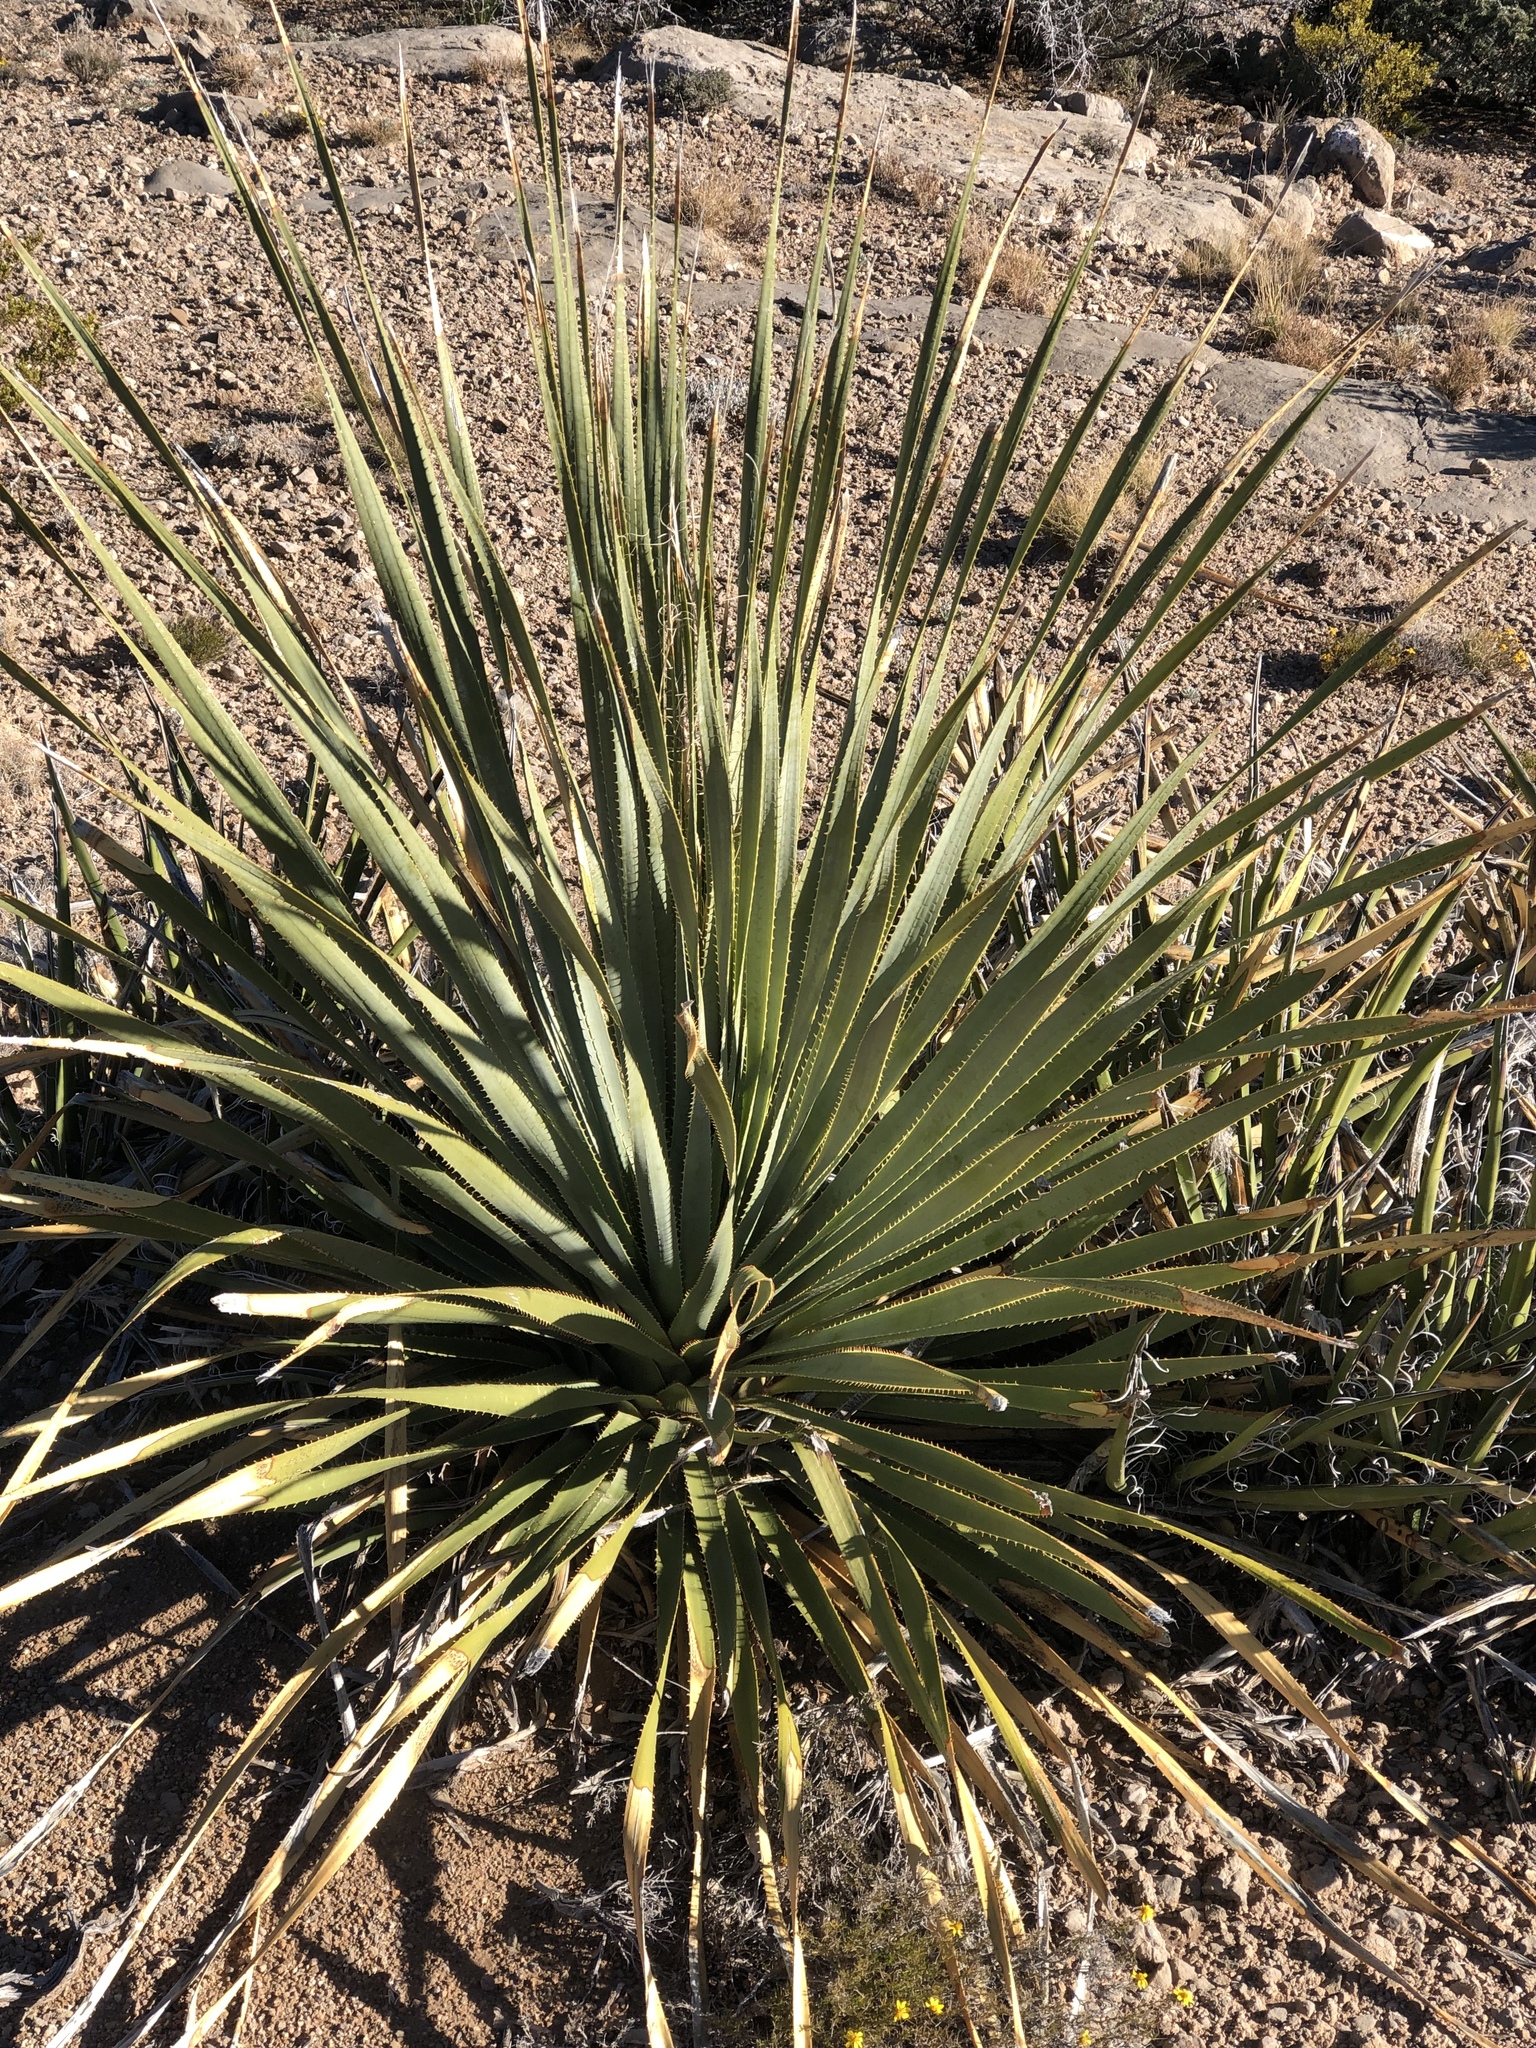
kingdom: Plantae
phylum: Tracheophyta
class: Liliopsida
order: Asparagales
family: Asparagaceae
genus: Dasylirion
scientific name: Dasylirion wheeleri
